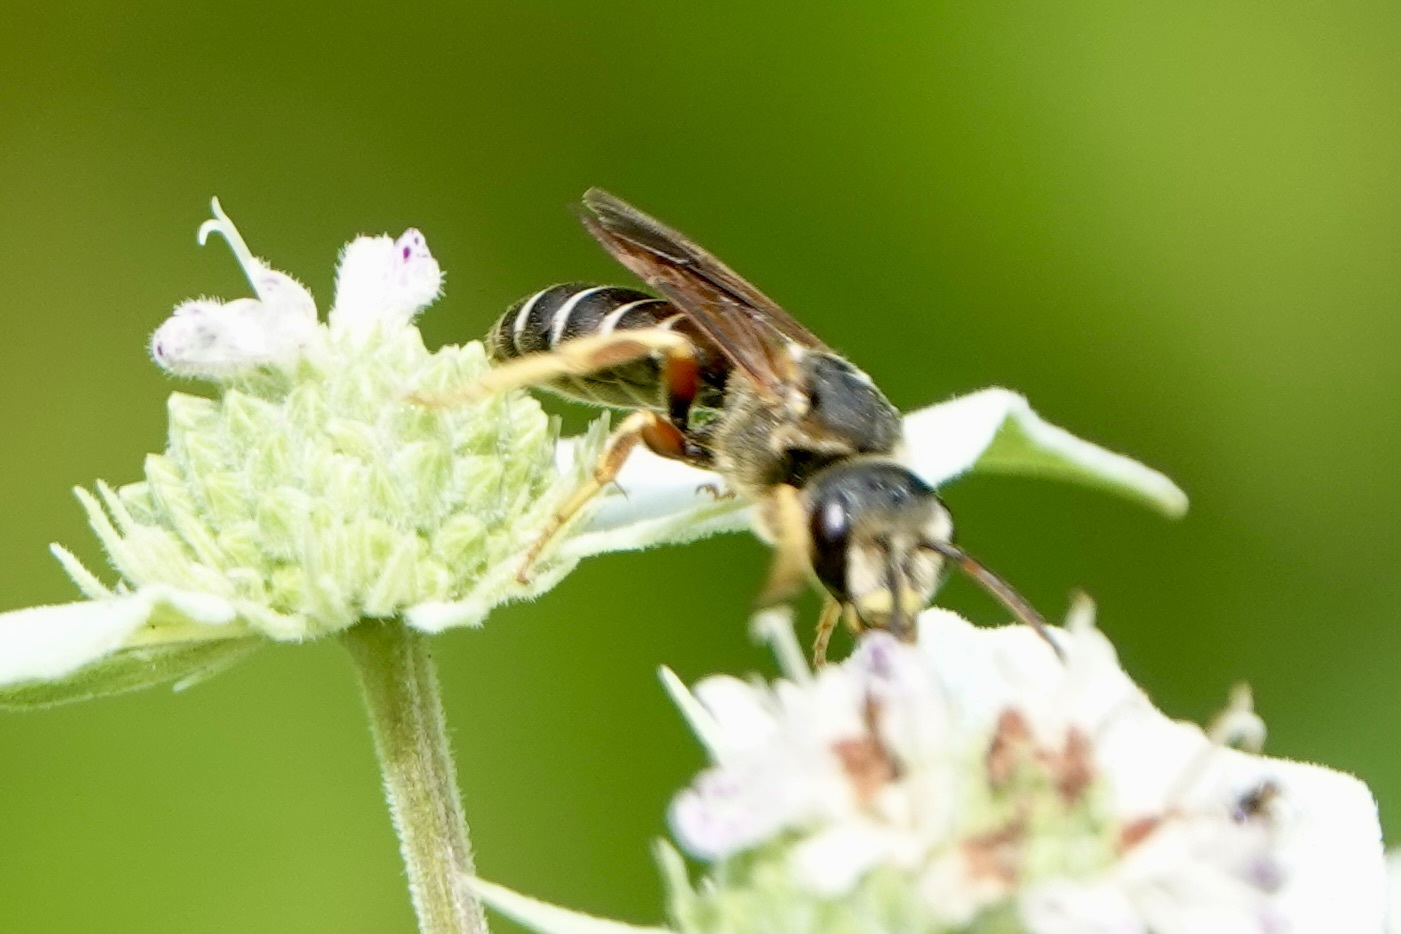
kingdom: Animalia
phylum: Arthropoda
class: Insecta
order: Hymenoptera
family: Halictidae
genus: Halictus
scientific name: Halictus parallelus
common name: Parallel-striped sweat bee
